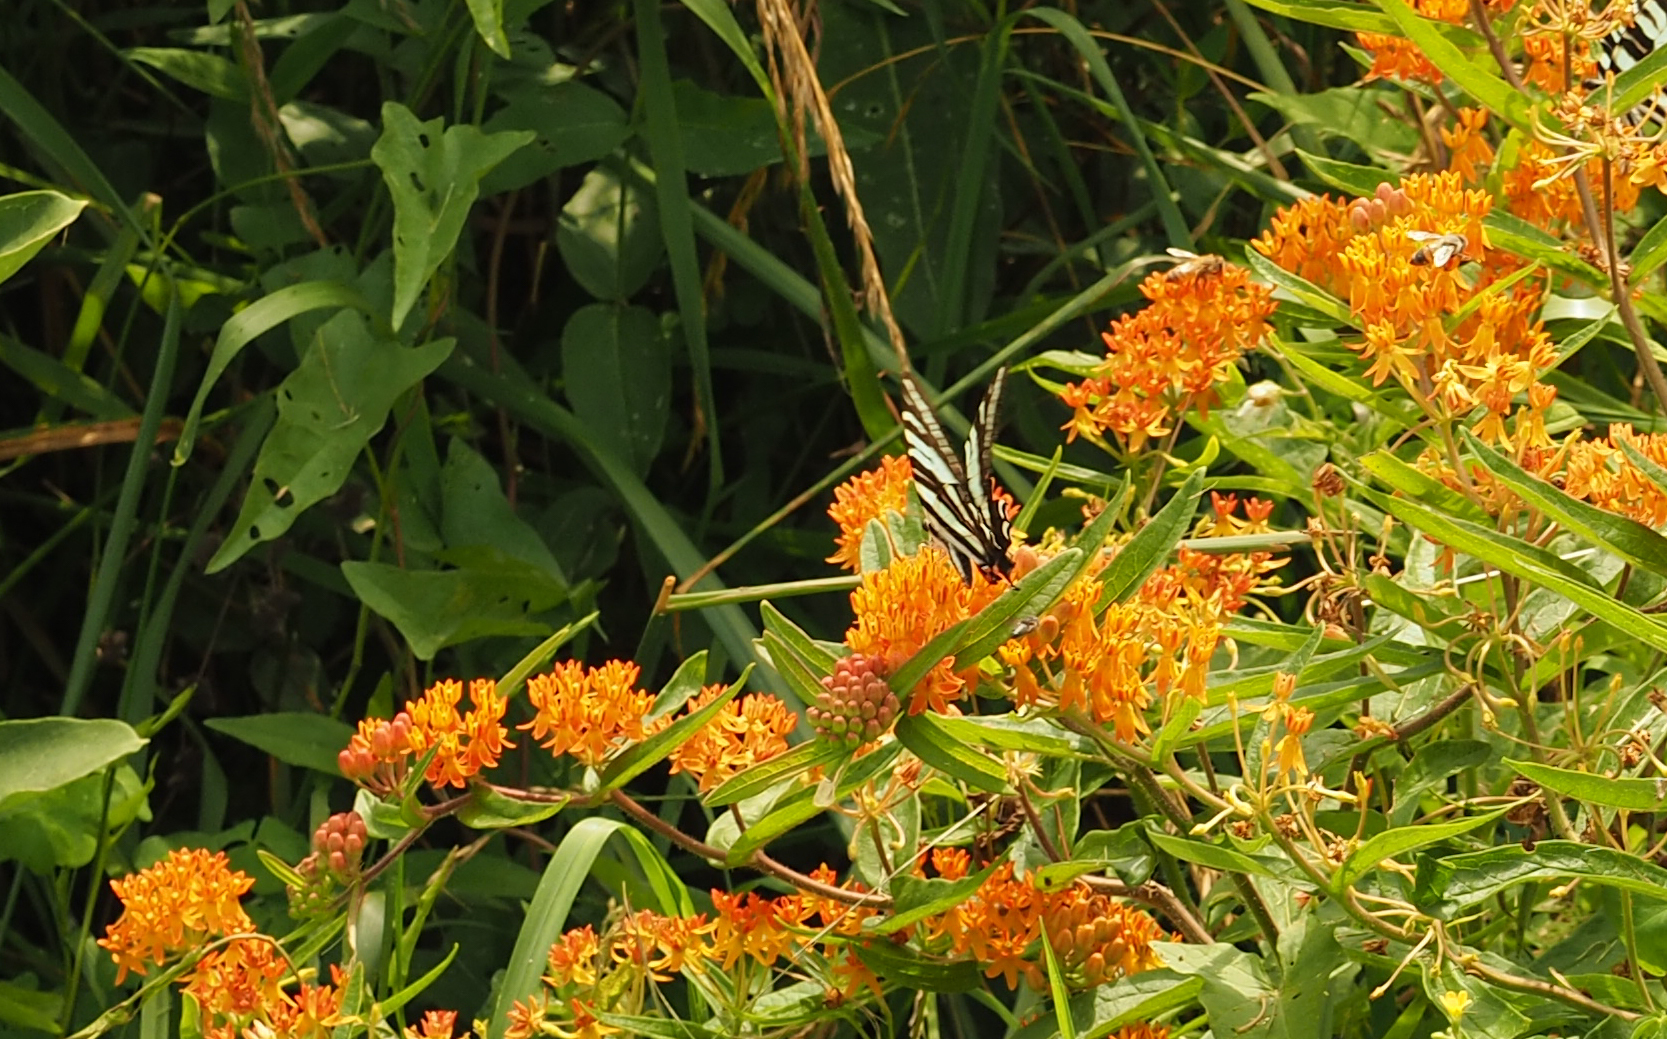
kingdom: Animalia
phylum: Arthropoda
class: Insecta
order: Lepidoptera
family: Papilionidae
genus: Protographium
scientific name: Protographium marcellus
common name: Zebra swallowtail
